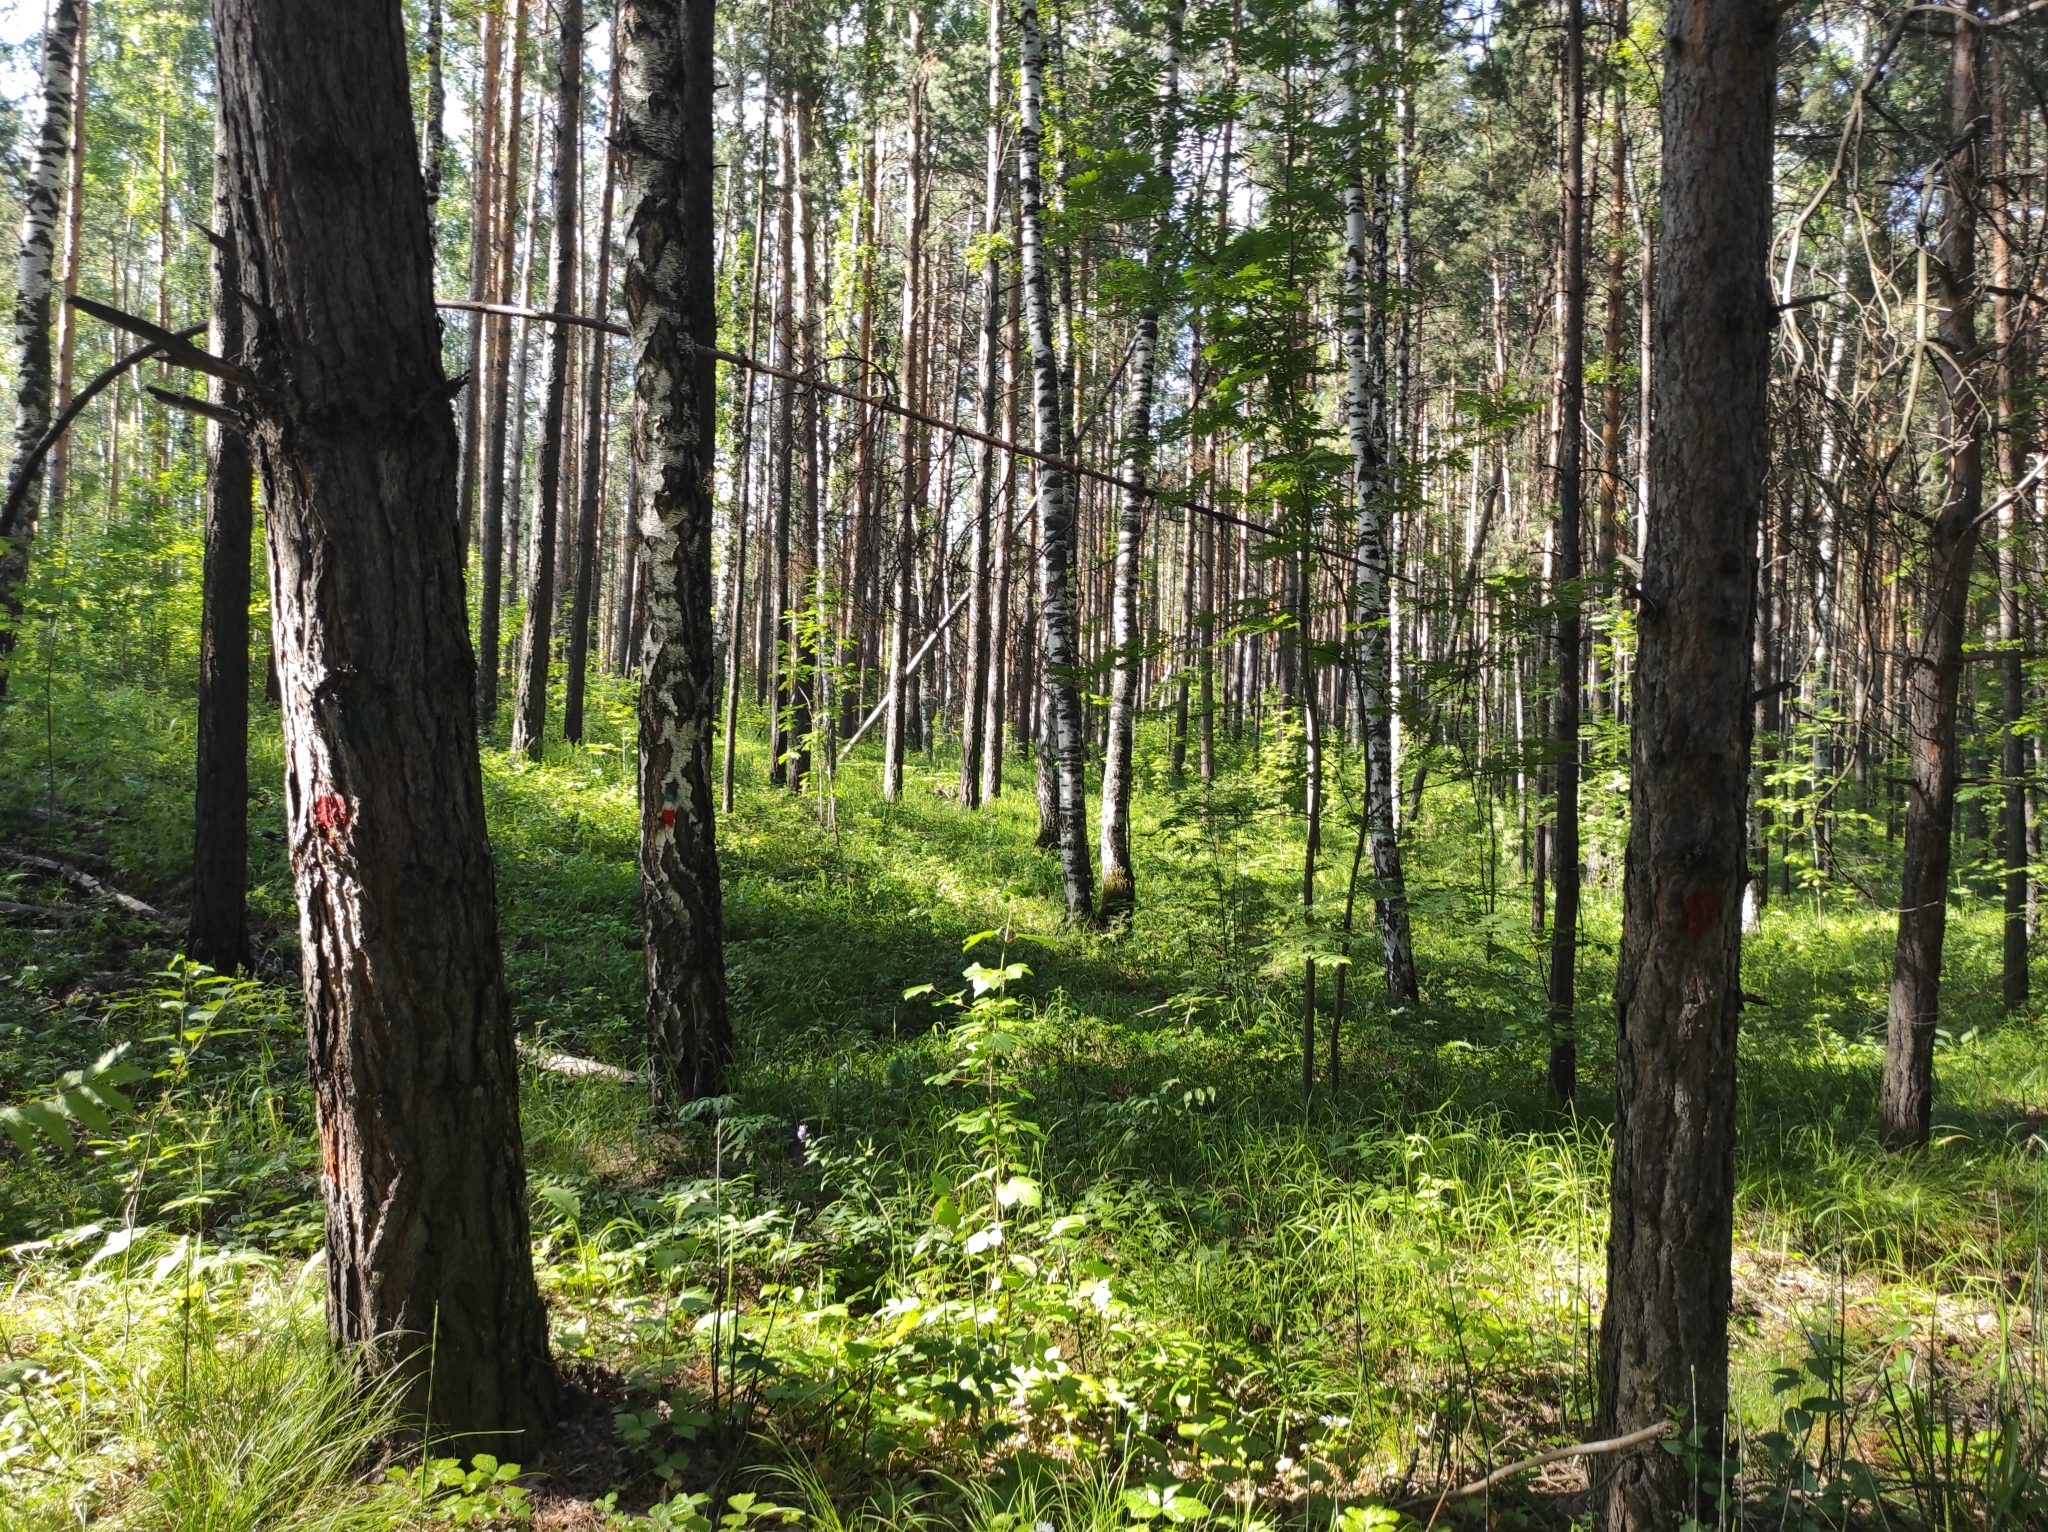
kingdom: Plantae
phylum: Tracheophyta
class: Liliopsida
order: Asparagales
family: Orchidaceae
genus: Hemipilia
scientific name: Hemipilia cucullata
